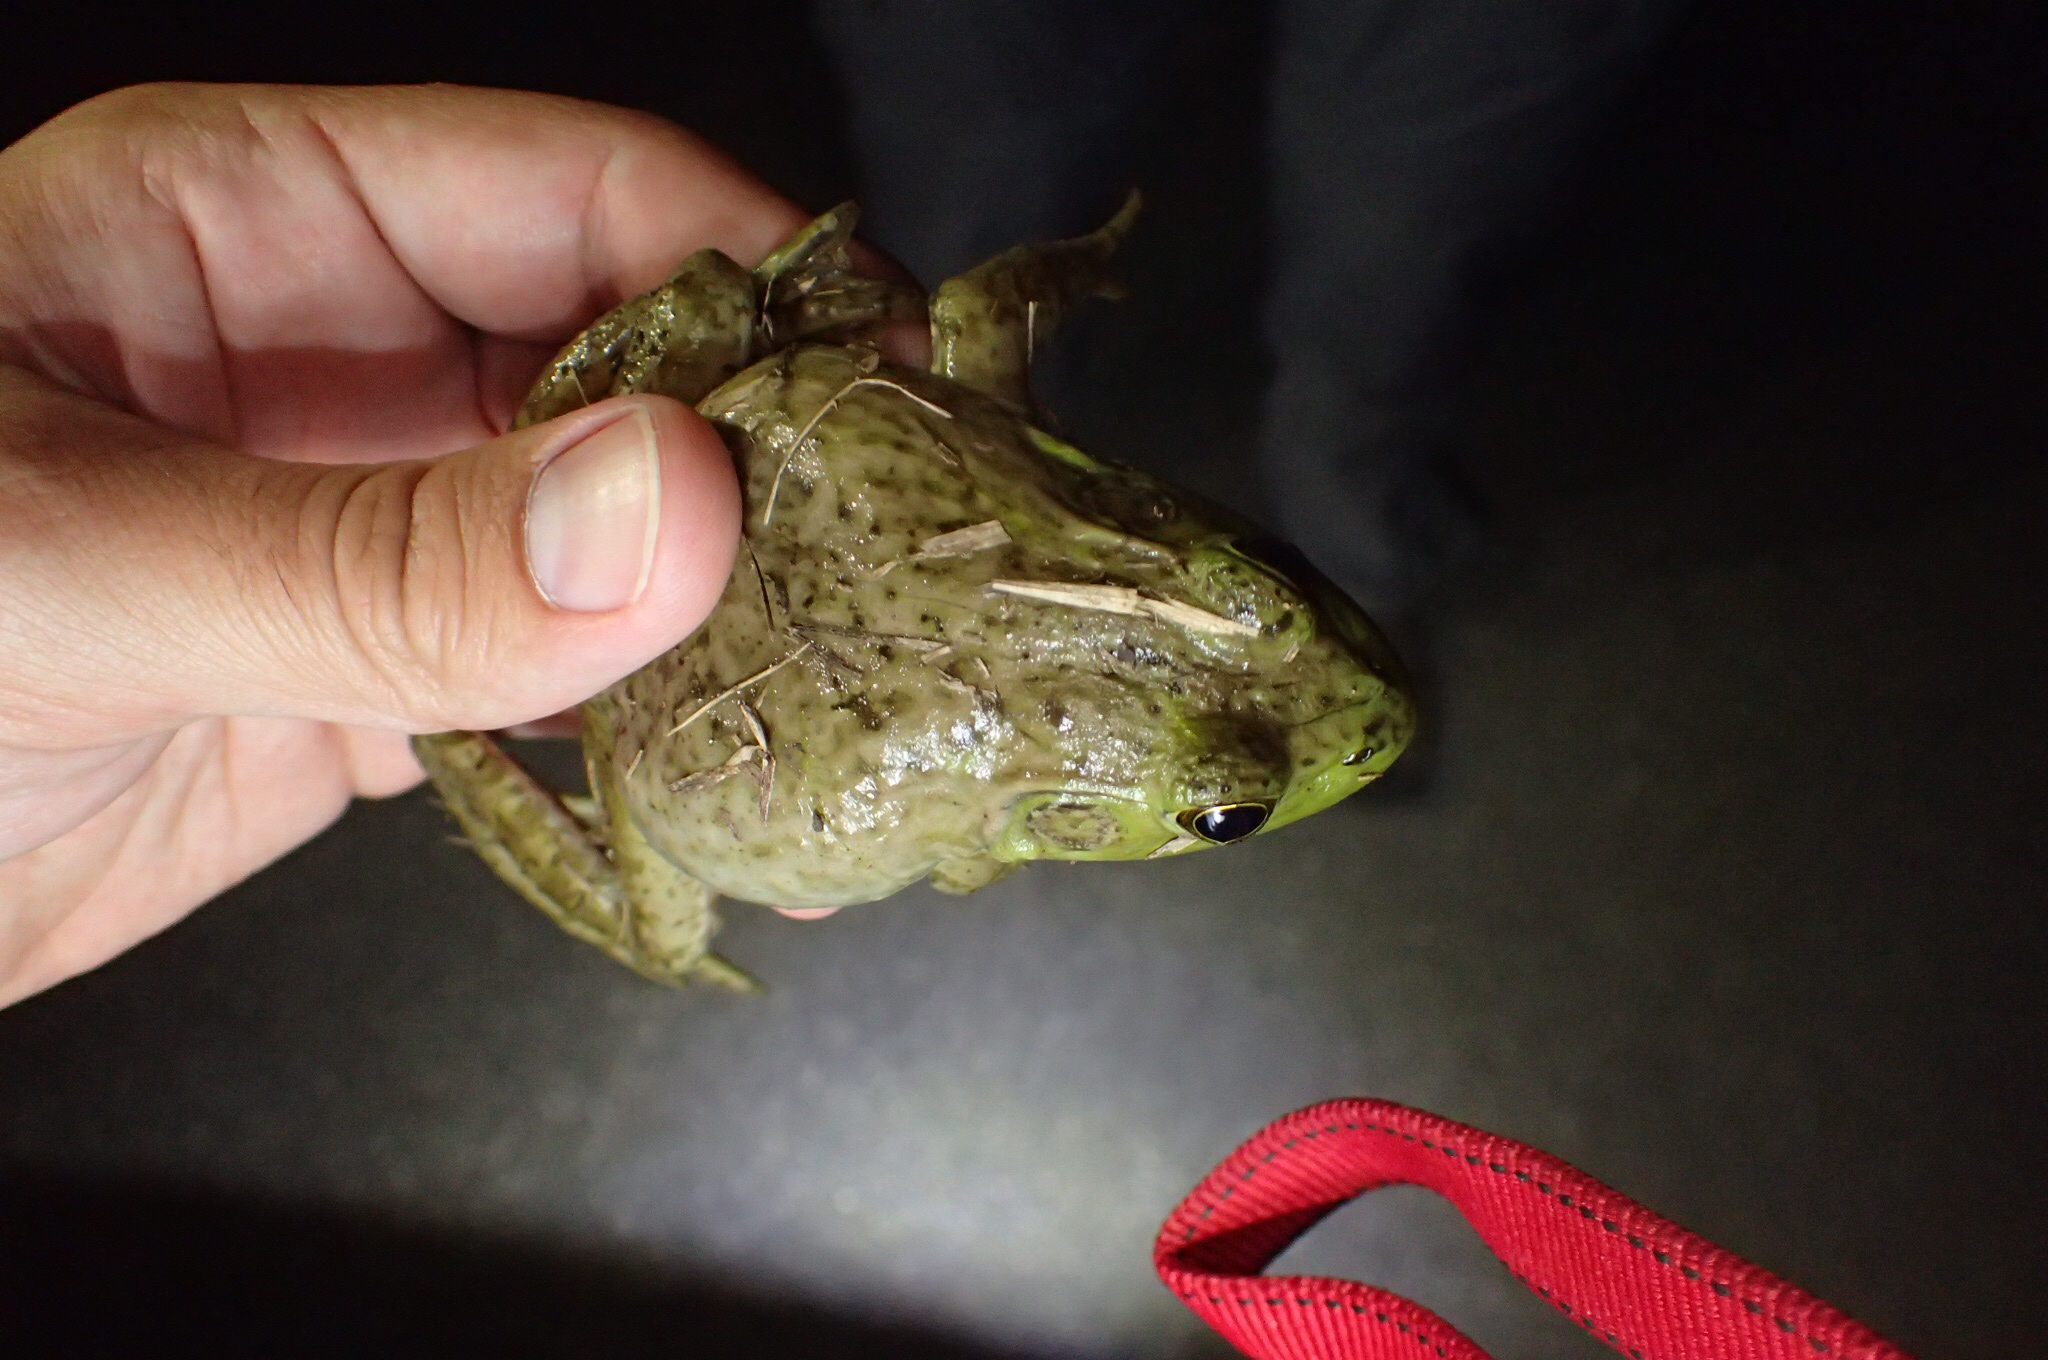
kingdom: Animalia
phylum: Chordata
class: Amphibia
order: Anura
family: Ranidae
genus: Lithobates
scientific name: Lithobates catesbeianus
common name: American bullfrog
